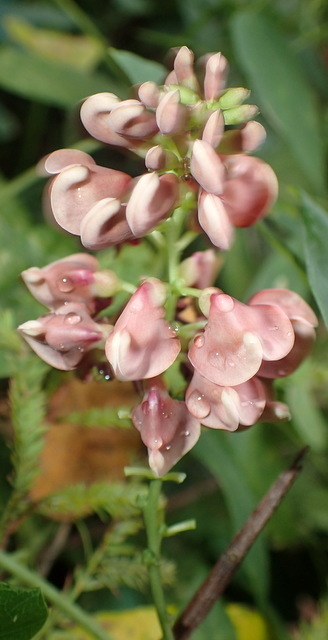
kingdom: Plantae
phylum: Tracheophyta
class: Magnoliopsida
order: Fabales
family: Fabaceae
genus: Apios
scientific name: Apios americana
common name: American potato-bean
